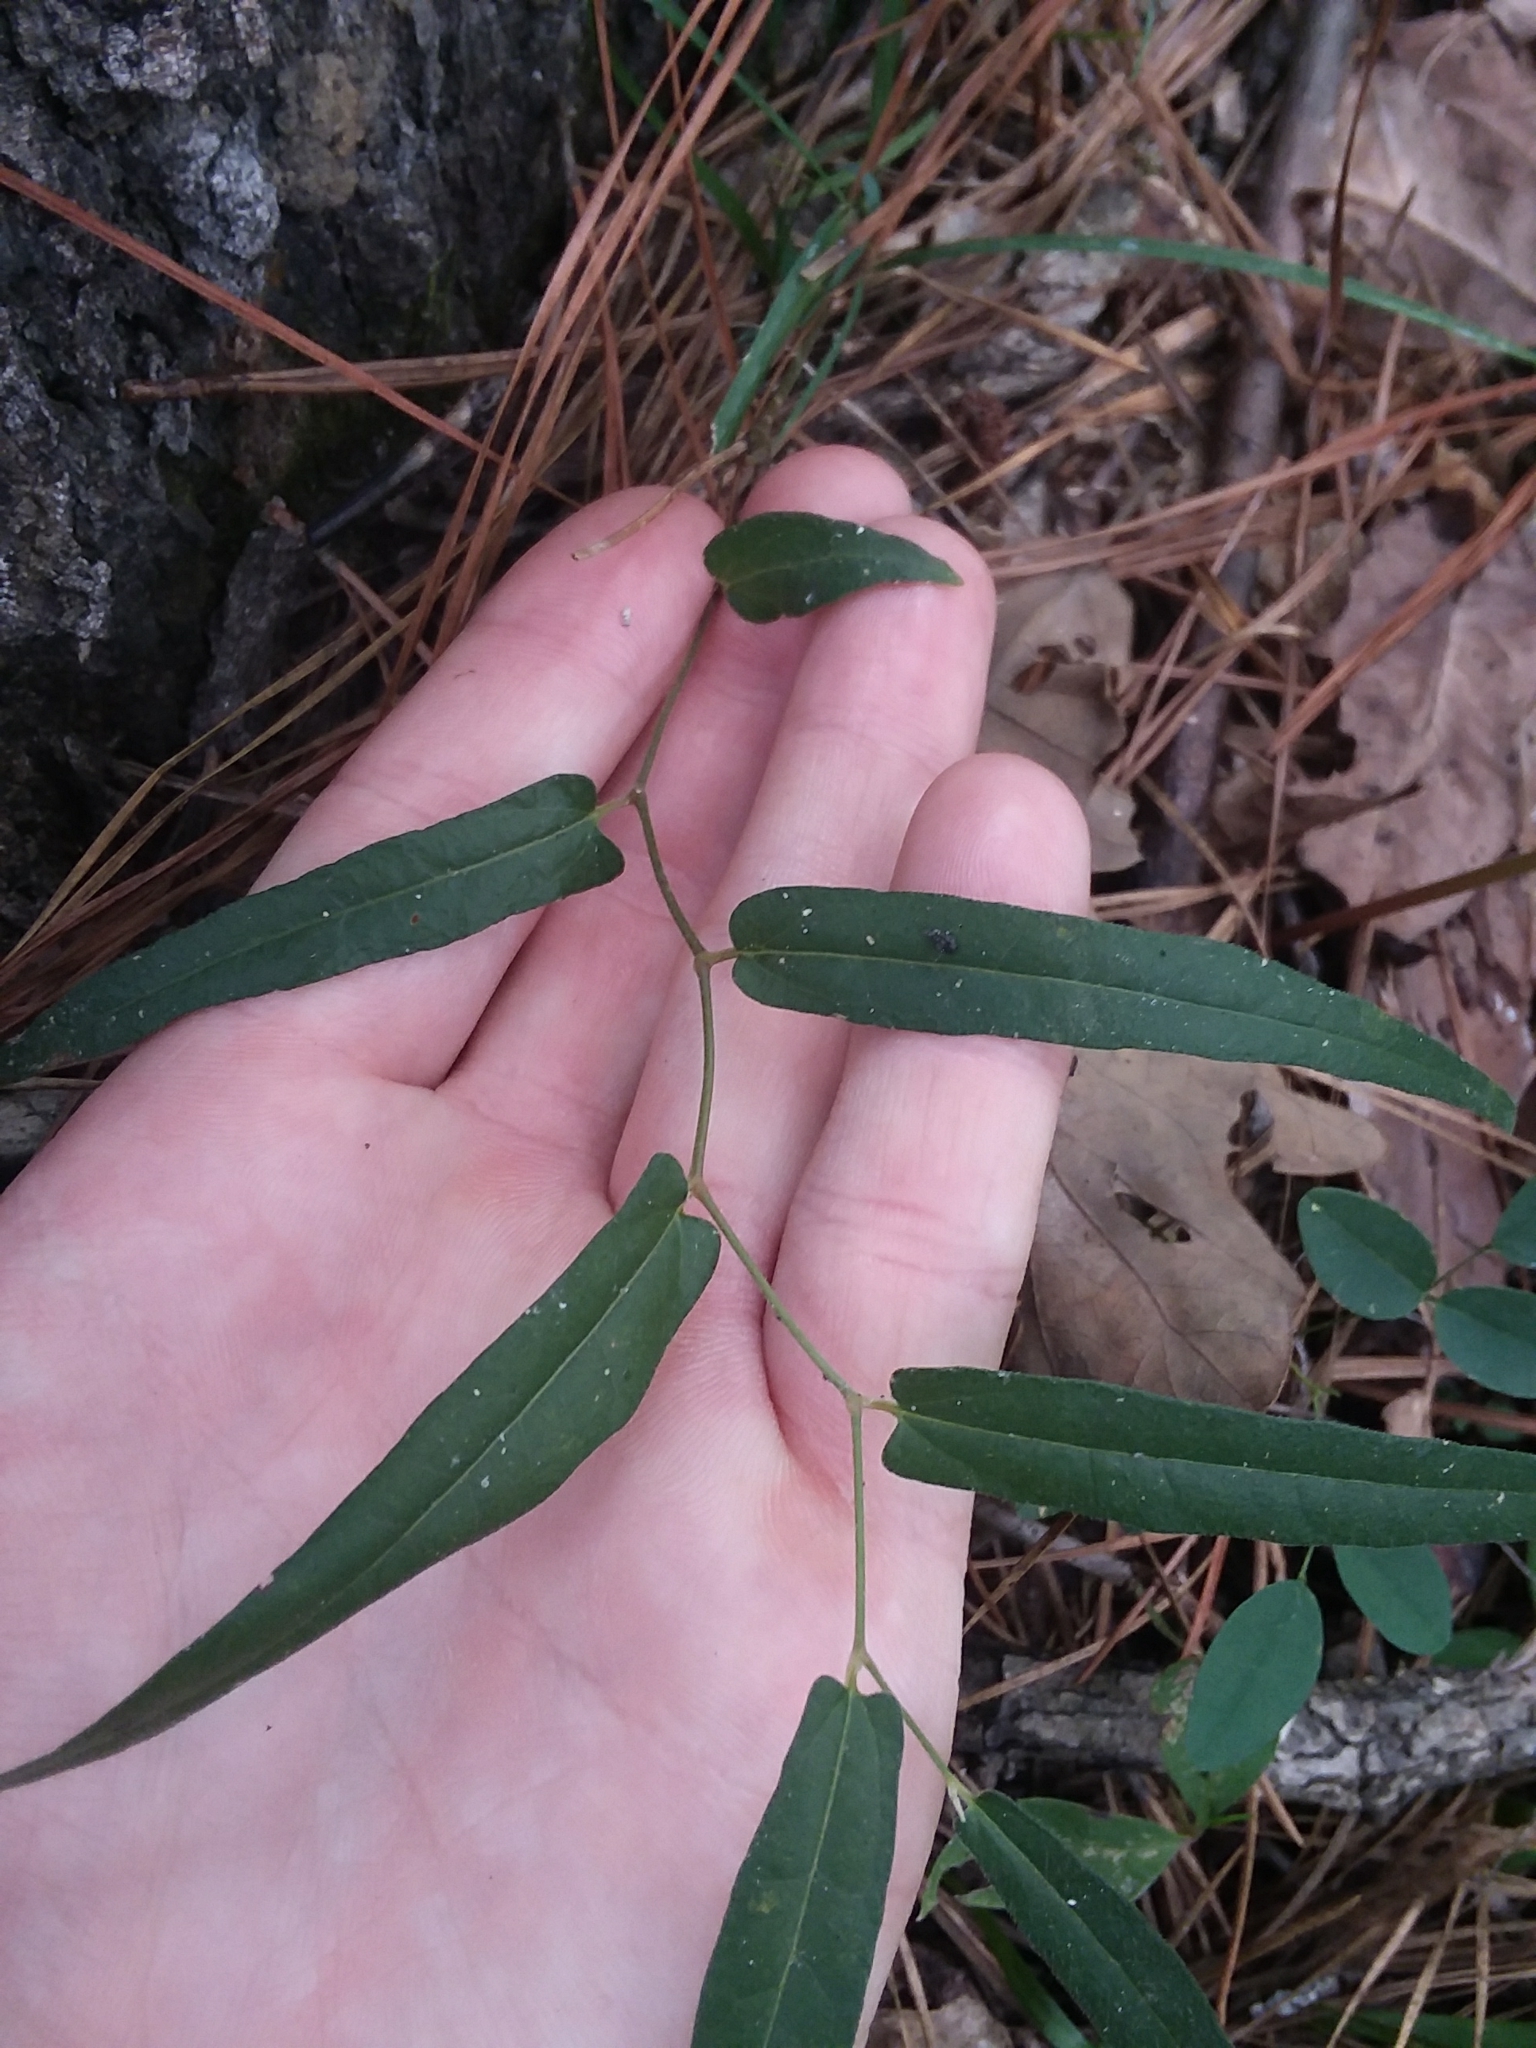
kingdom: Plantae
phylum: Tracheophyta
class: Magnoliopsida
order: Piperales
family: Aristolochiaceae
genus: Endodeca
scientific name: Endodeca serpentaria
